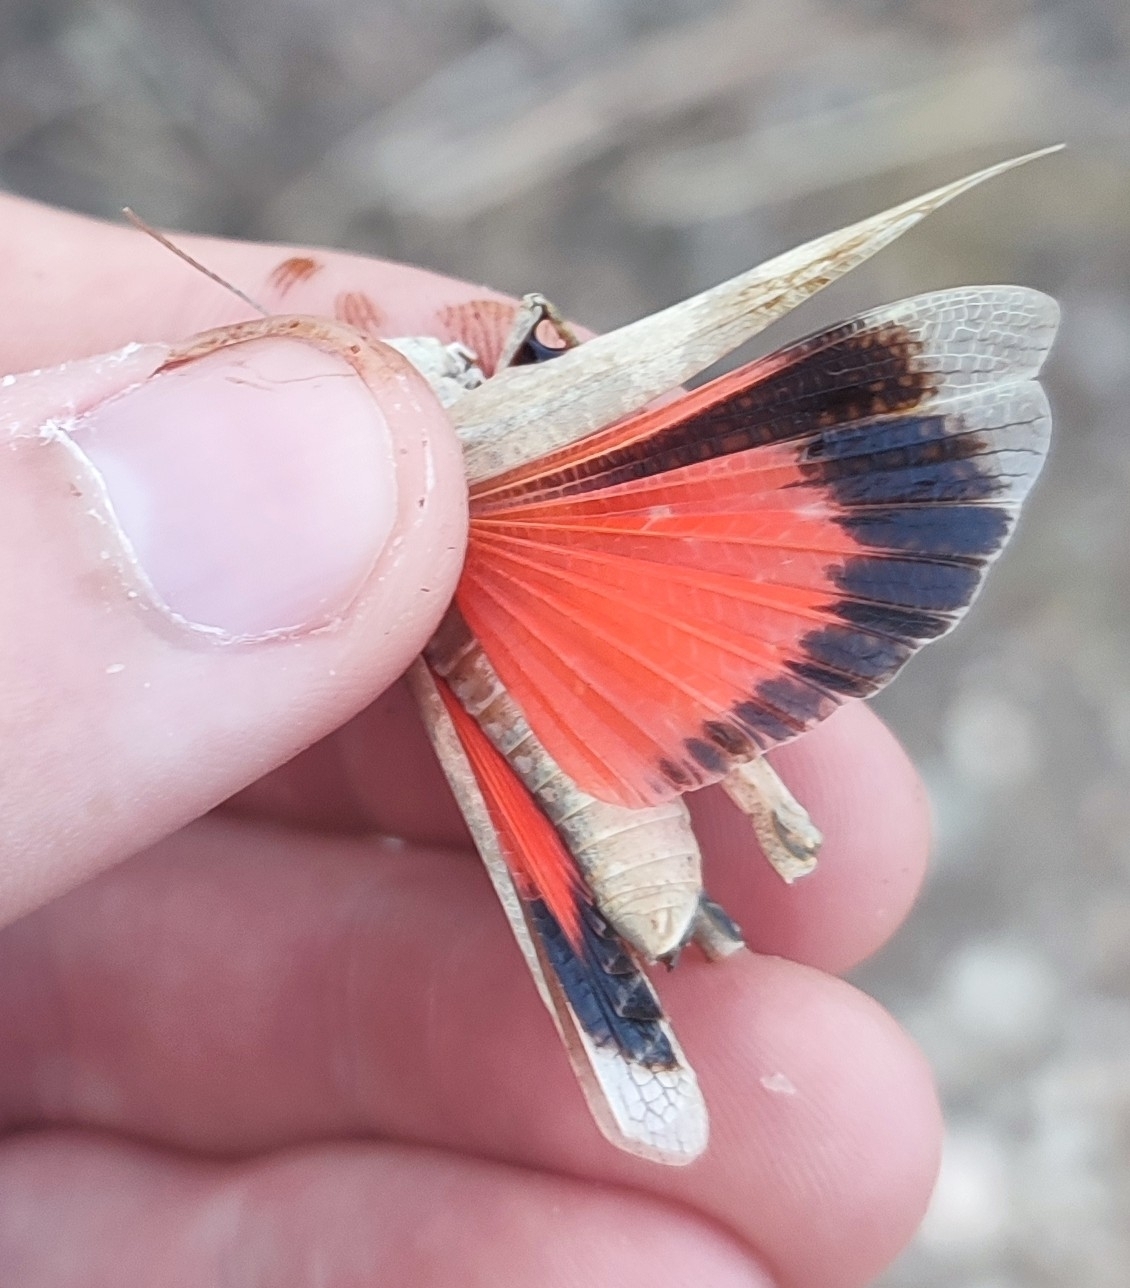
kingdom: Animalia
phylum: Arthropoda
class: Insecta
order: Orthoptera
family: Acrididae
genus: Oedipoda
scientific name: Oedipoda germanica
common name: Red band-winged grasshopper
